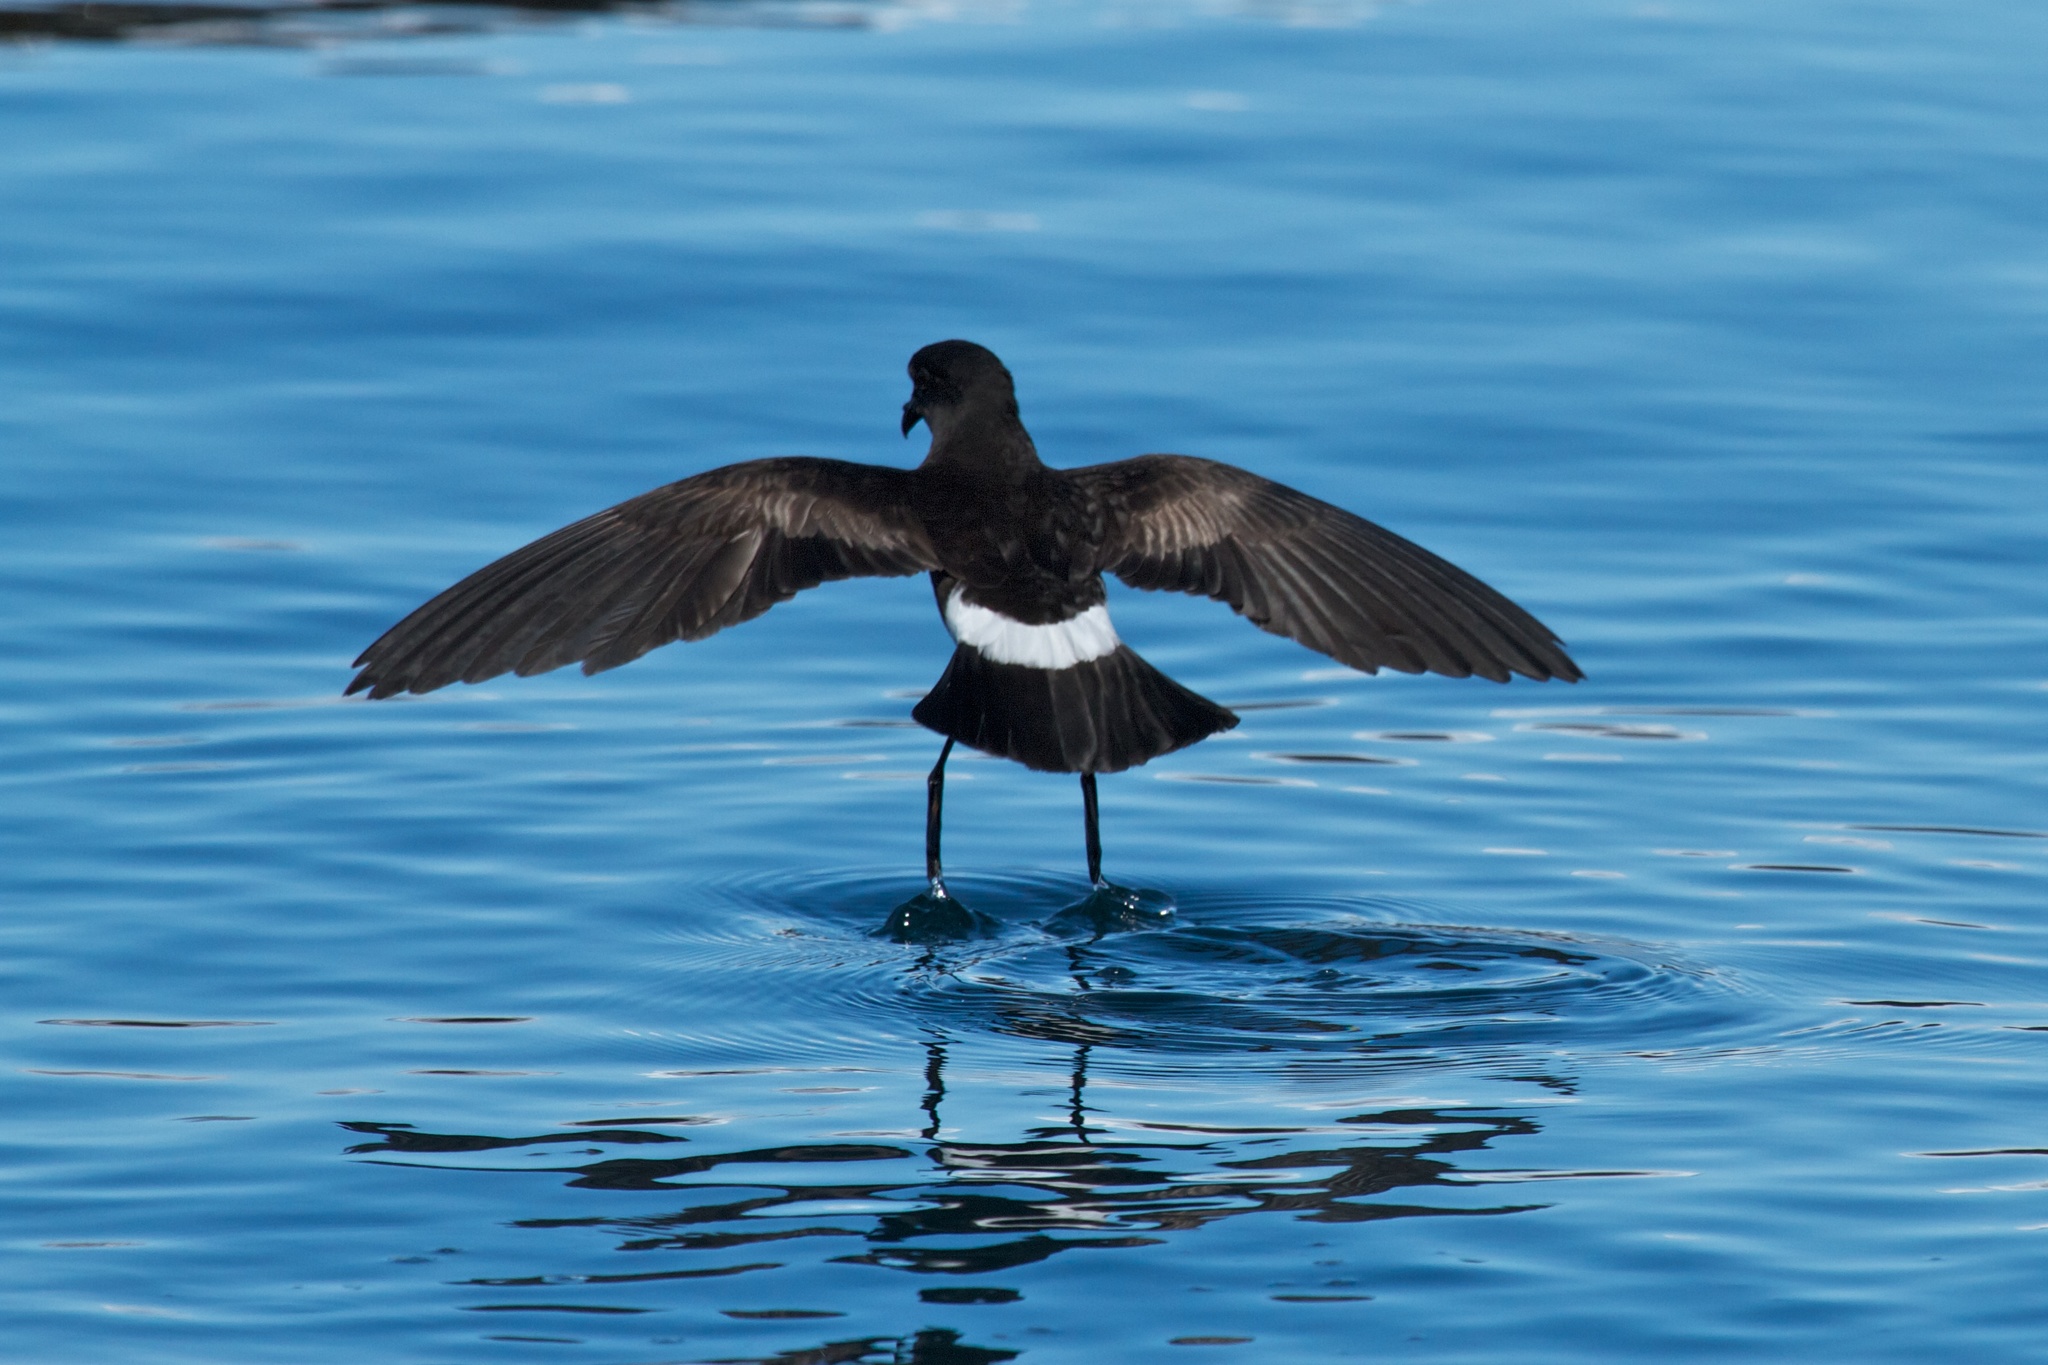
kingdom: Animalia
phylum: Chordata
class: Aves
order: Procellariiformes
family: Hydrobatidae
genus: Oceanites
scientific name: Oceanites oceanicus
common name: Wilson's storm petrel
